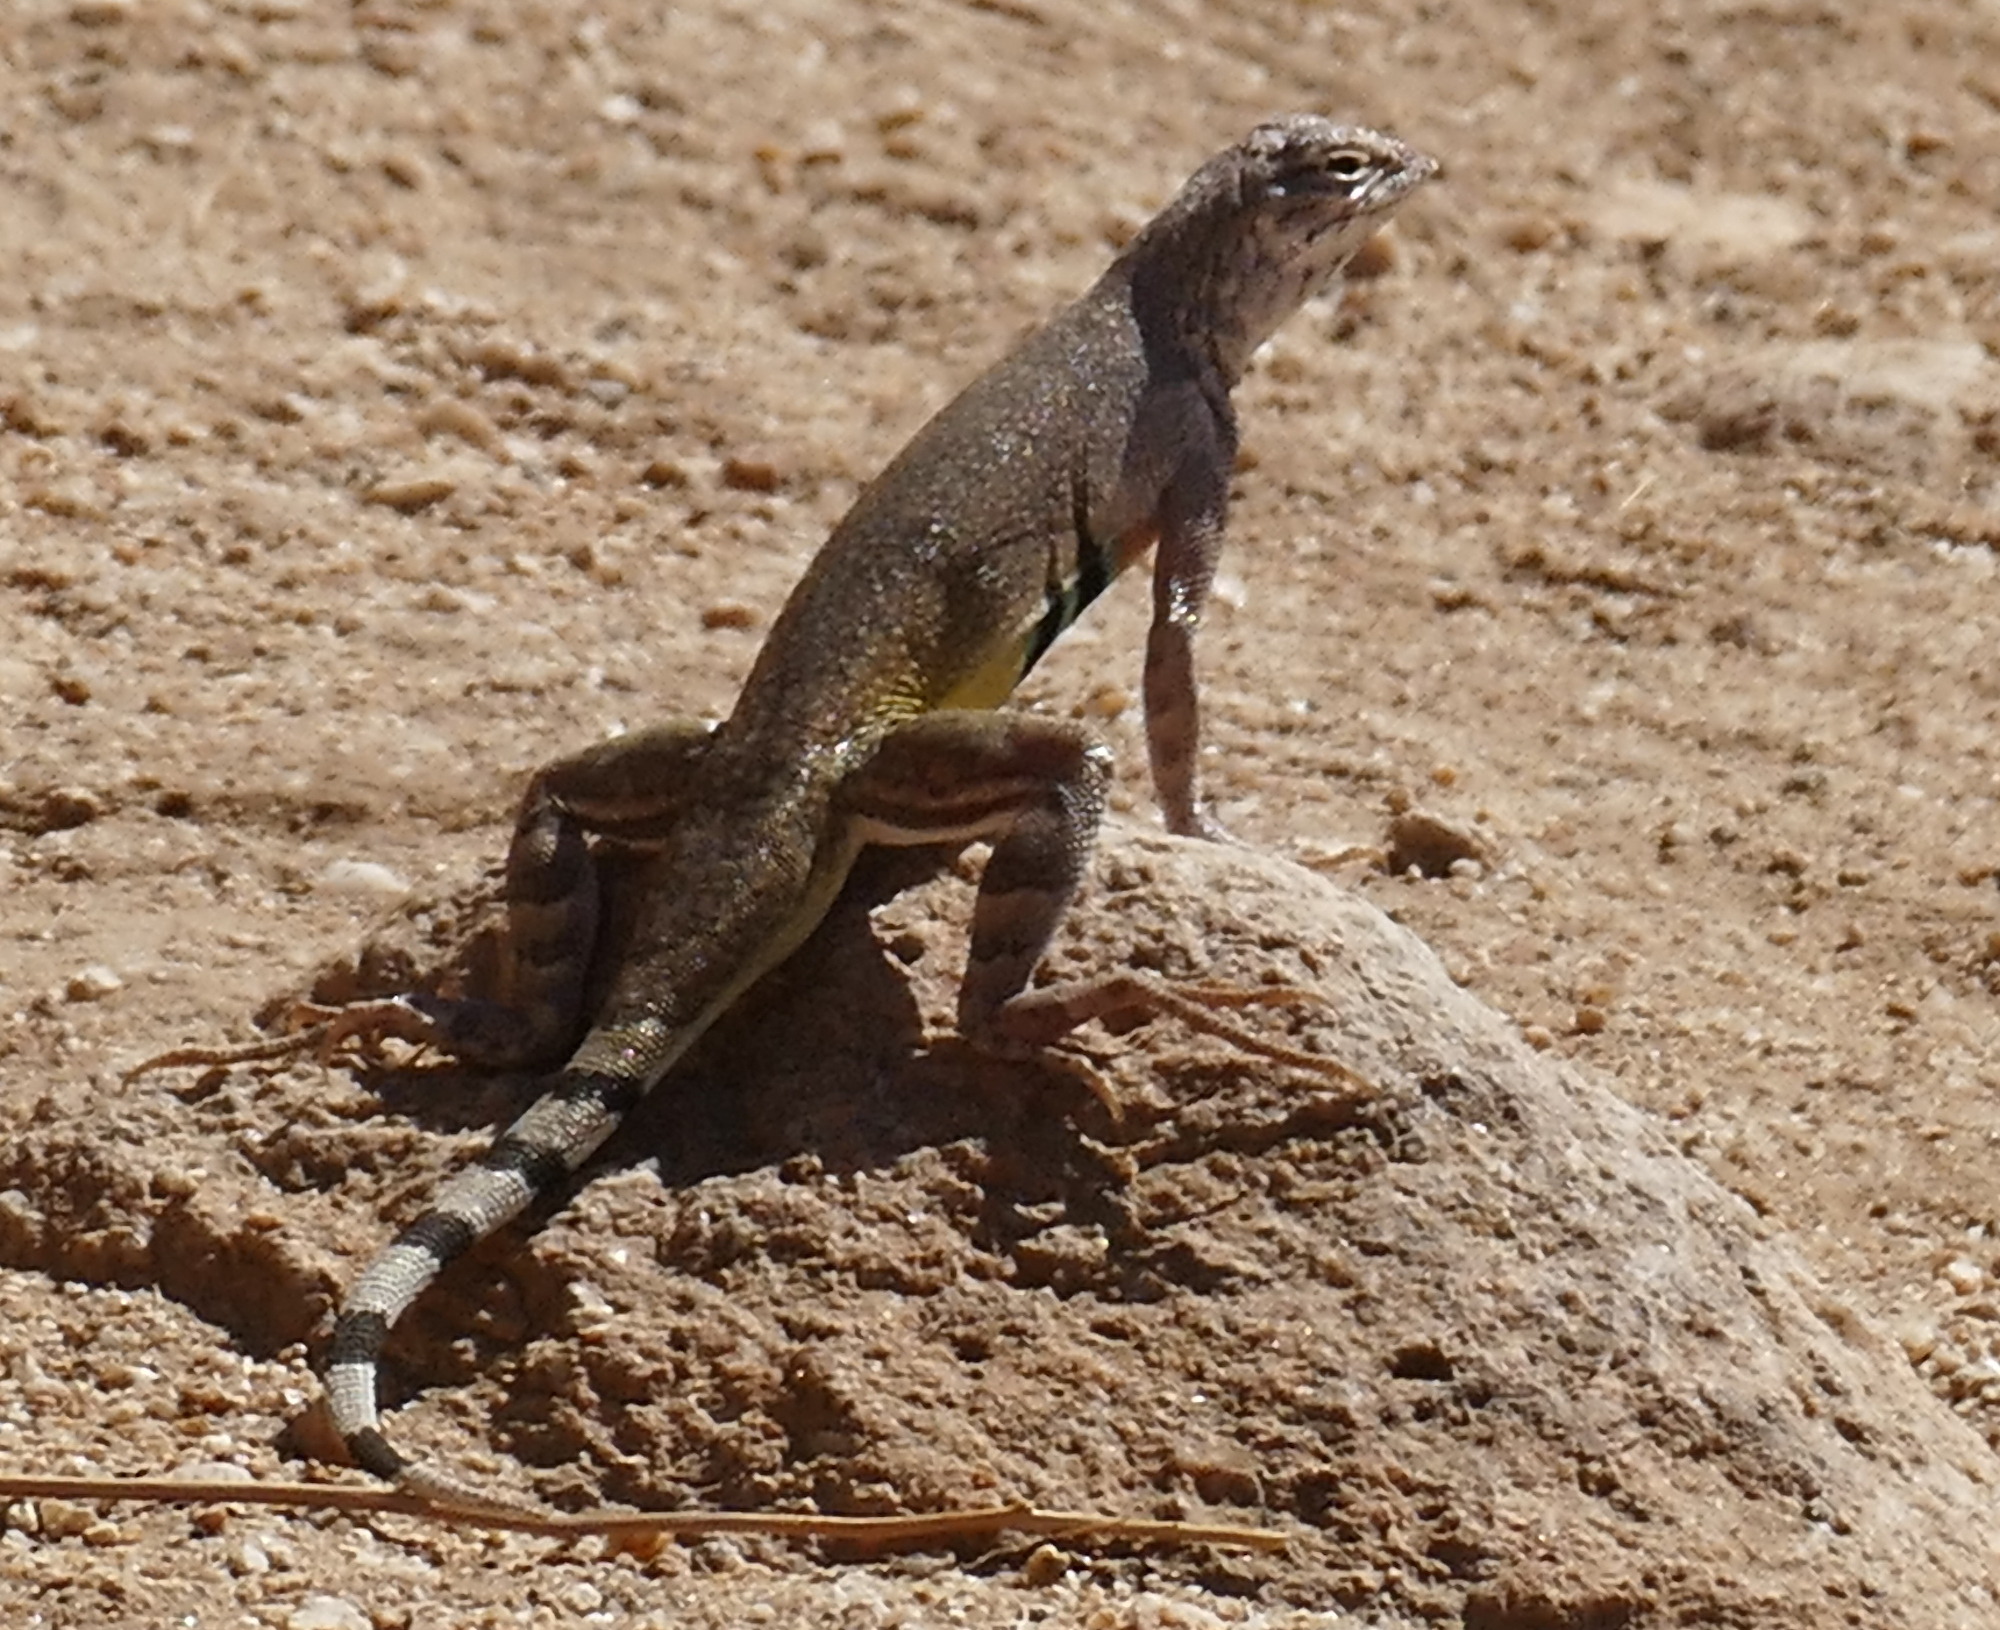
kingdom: Animalia
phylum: Chordata
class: Squamata
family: Phrynosomatidae
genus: Callisaurus
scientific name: Callisaurus draconoides
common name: Zebra-tailed lizard
